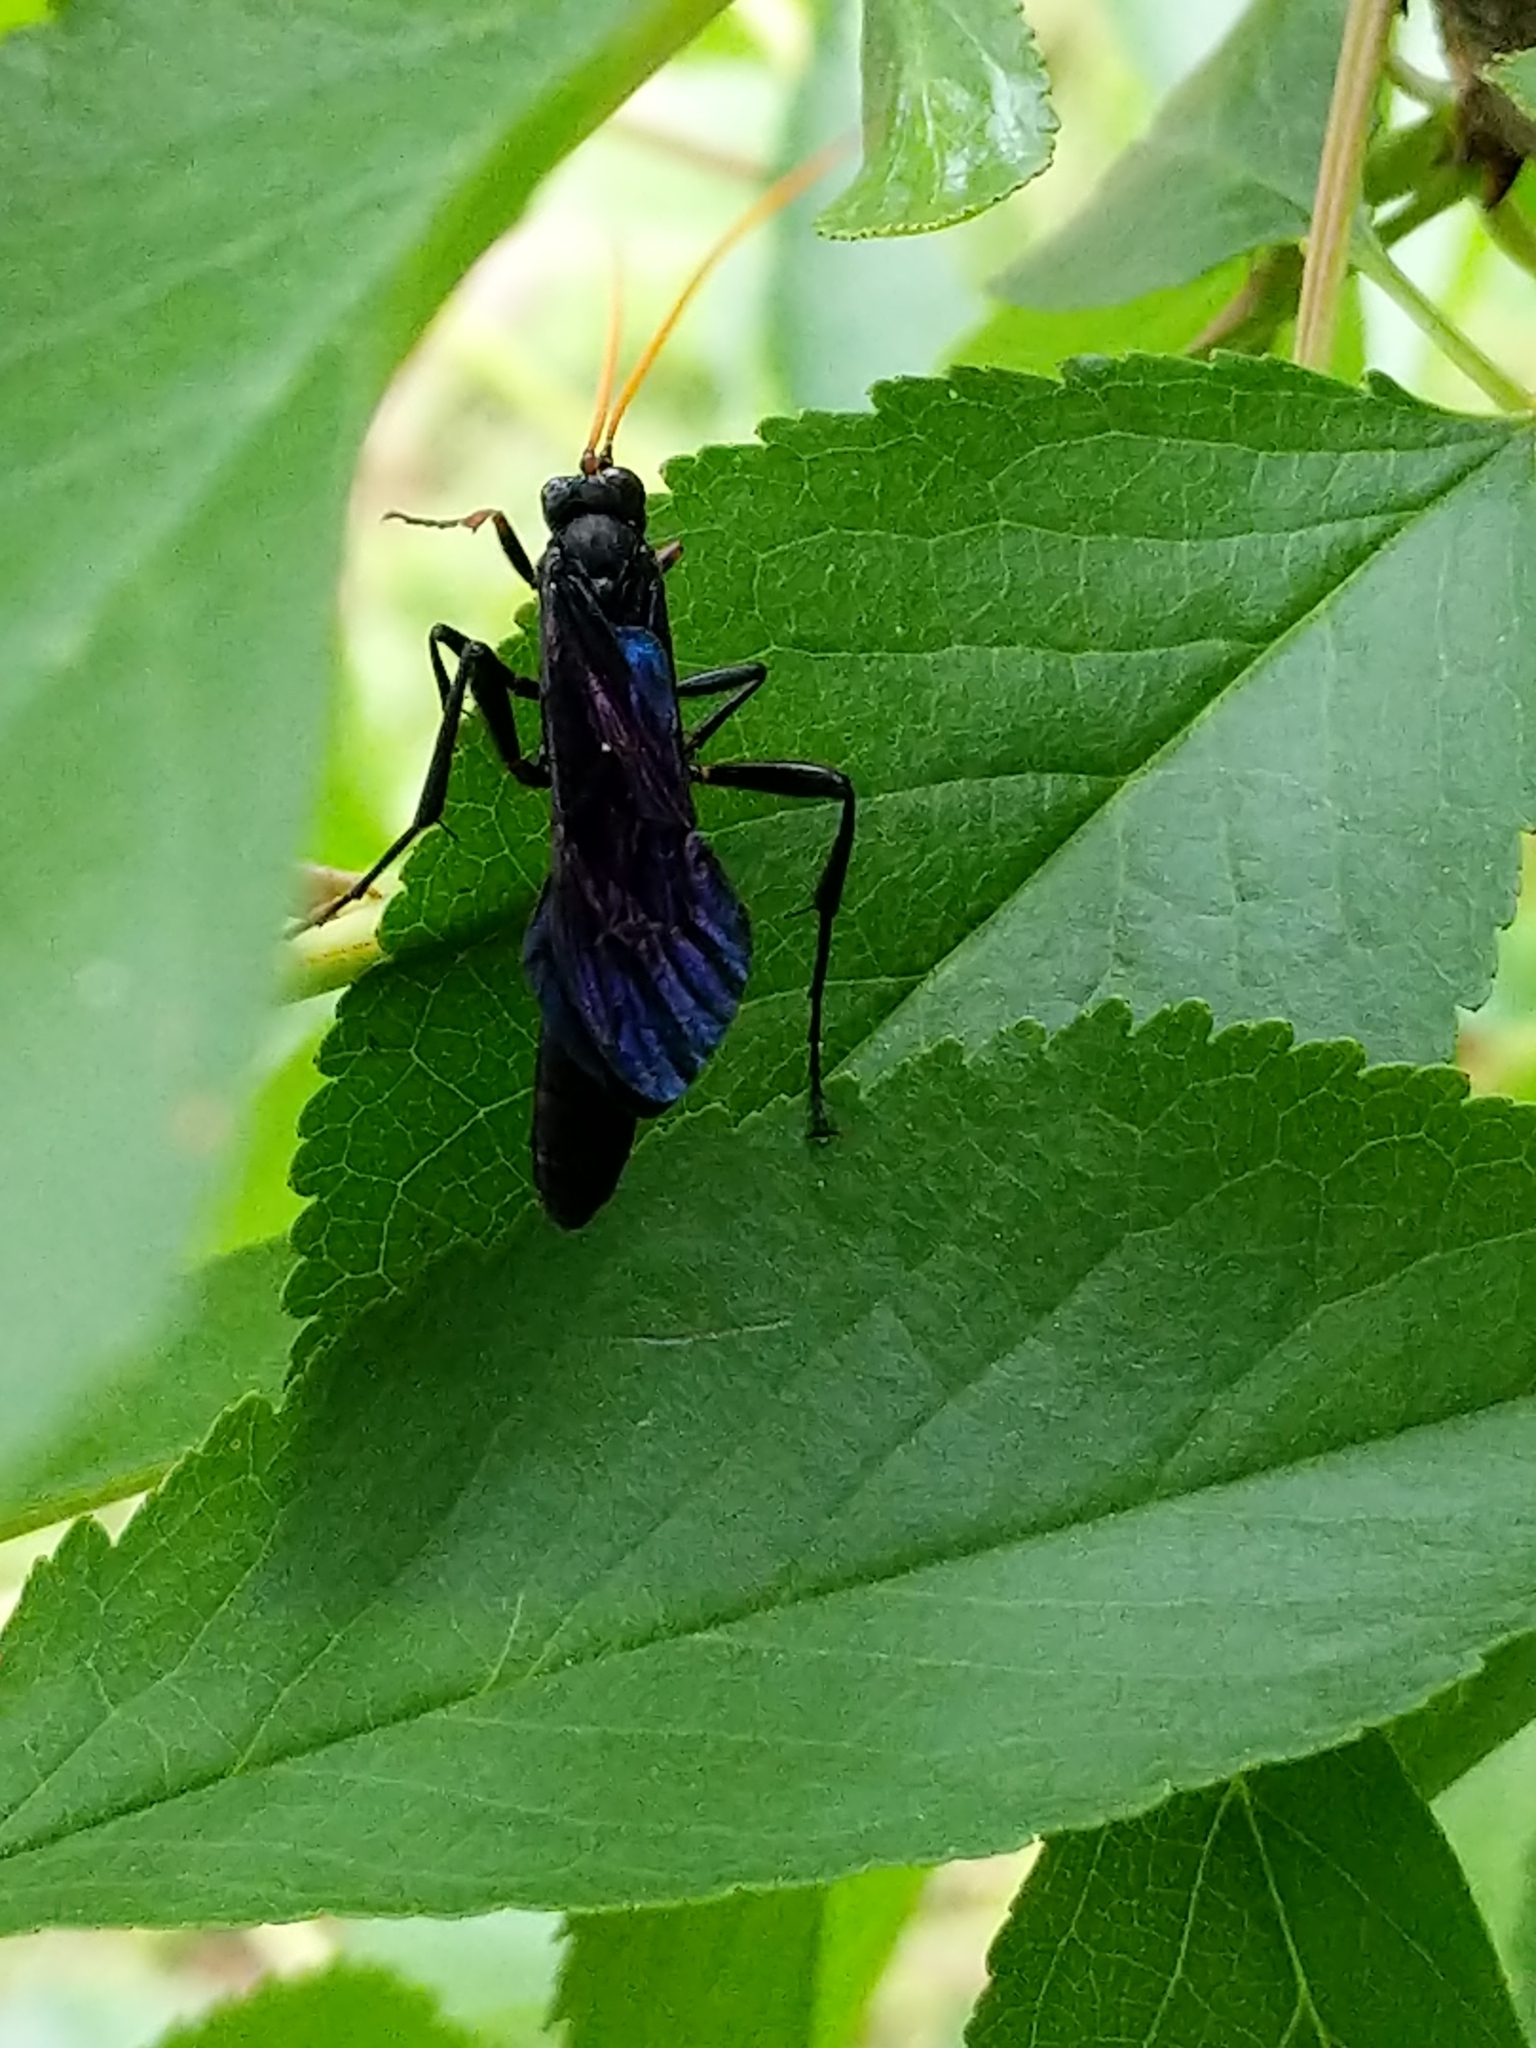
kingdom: Animalia
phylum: Arthropoda
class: Insecta
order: Hymenoptera
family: Ichneumonidae
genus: Gnamptopelta
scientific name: Gnamptopelta obsidianator
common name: Bent-shielded besieger wasp
